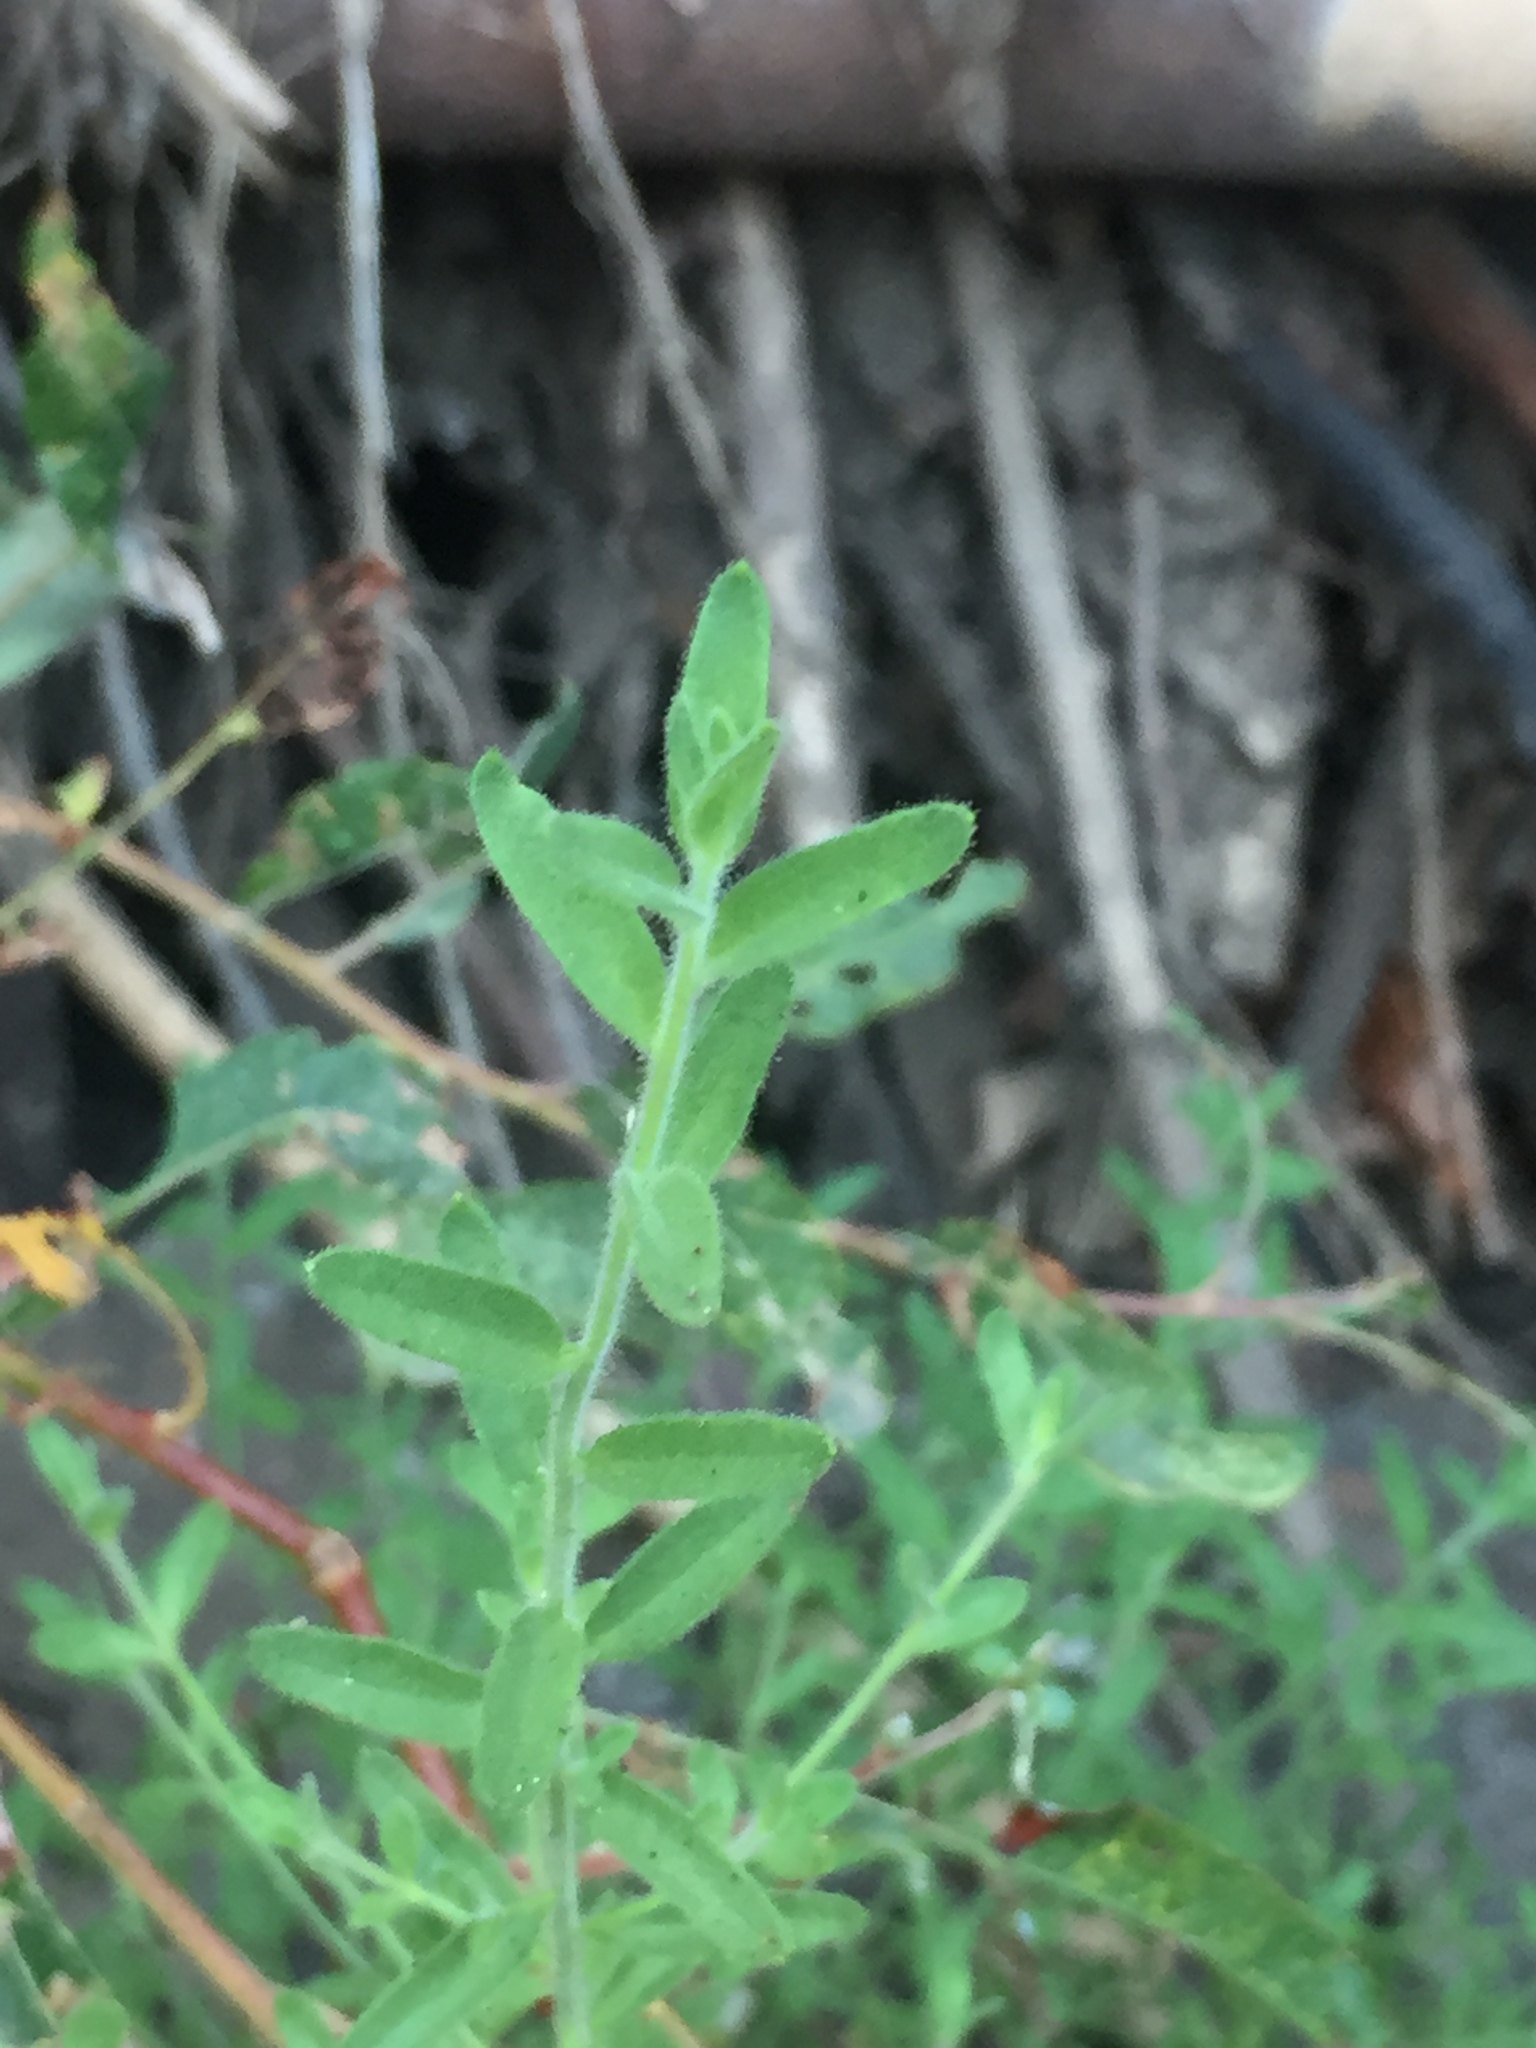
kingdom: Plantae
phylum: Tracheophyta
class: Magnoliopsida
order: Myrtales
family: Onagraceae
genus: Epilobium
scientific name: Epilobium canum
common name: California-fuchsia
